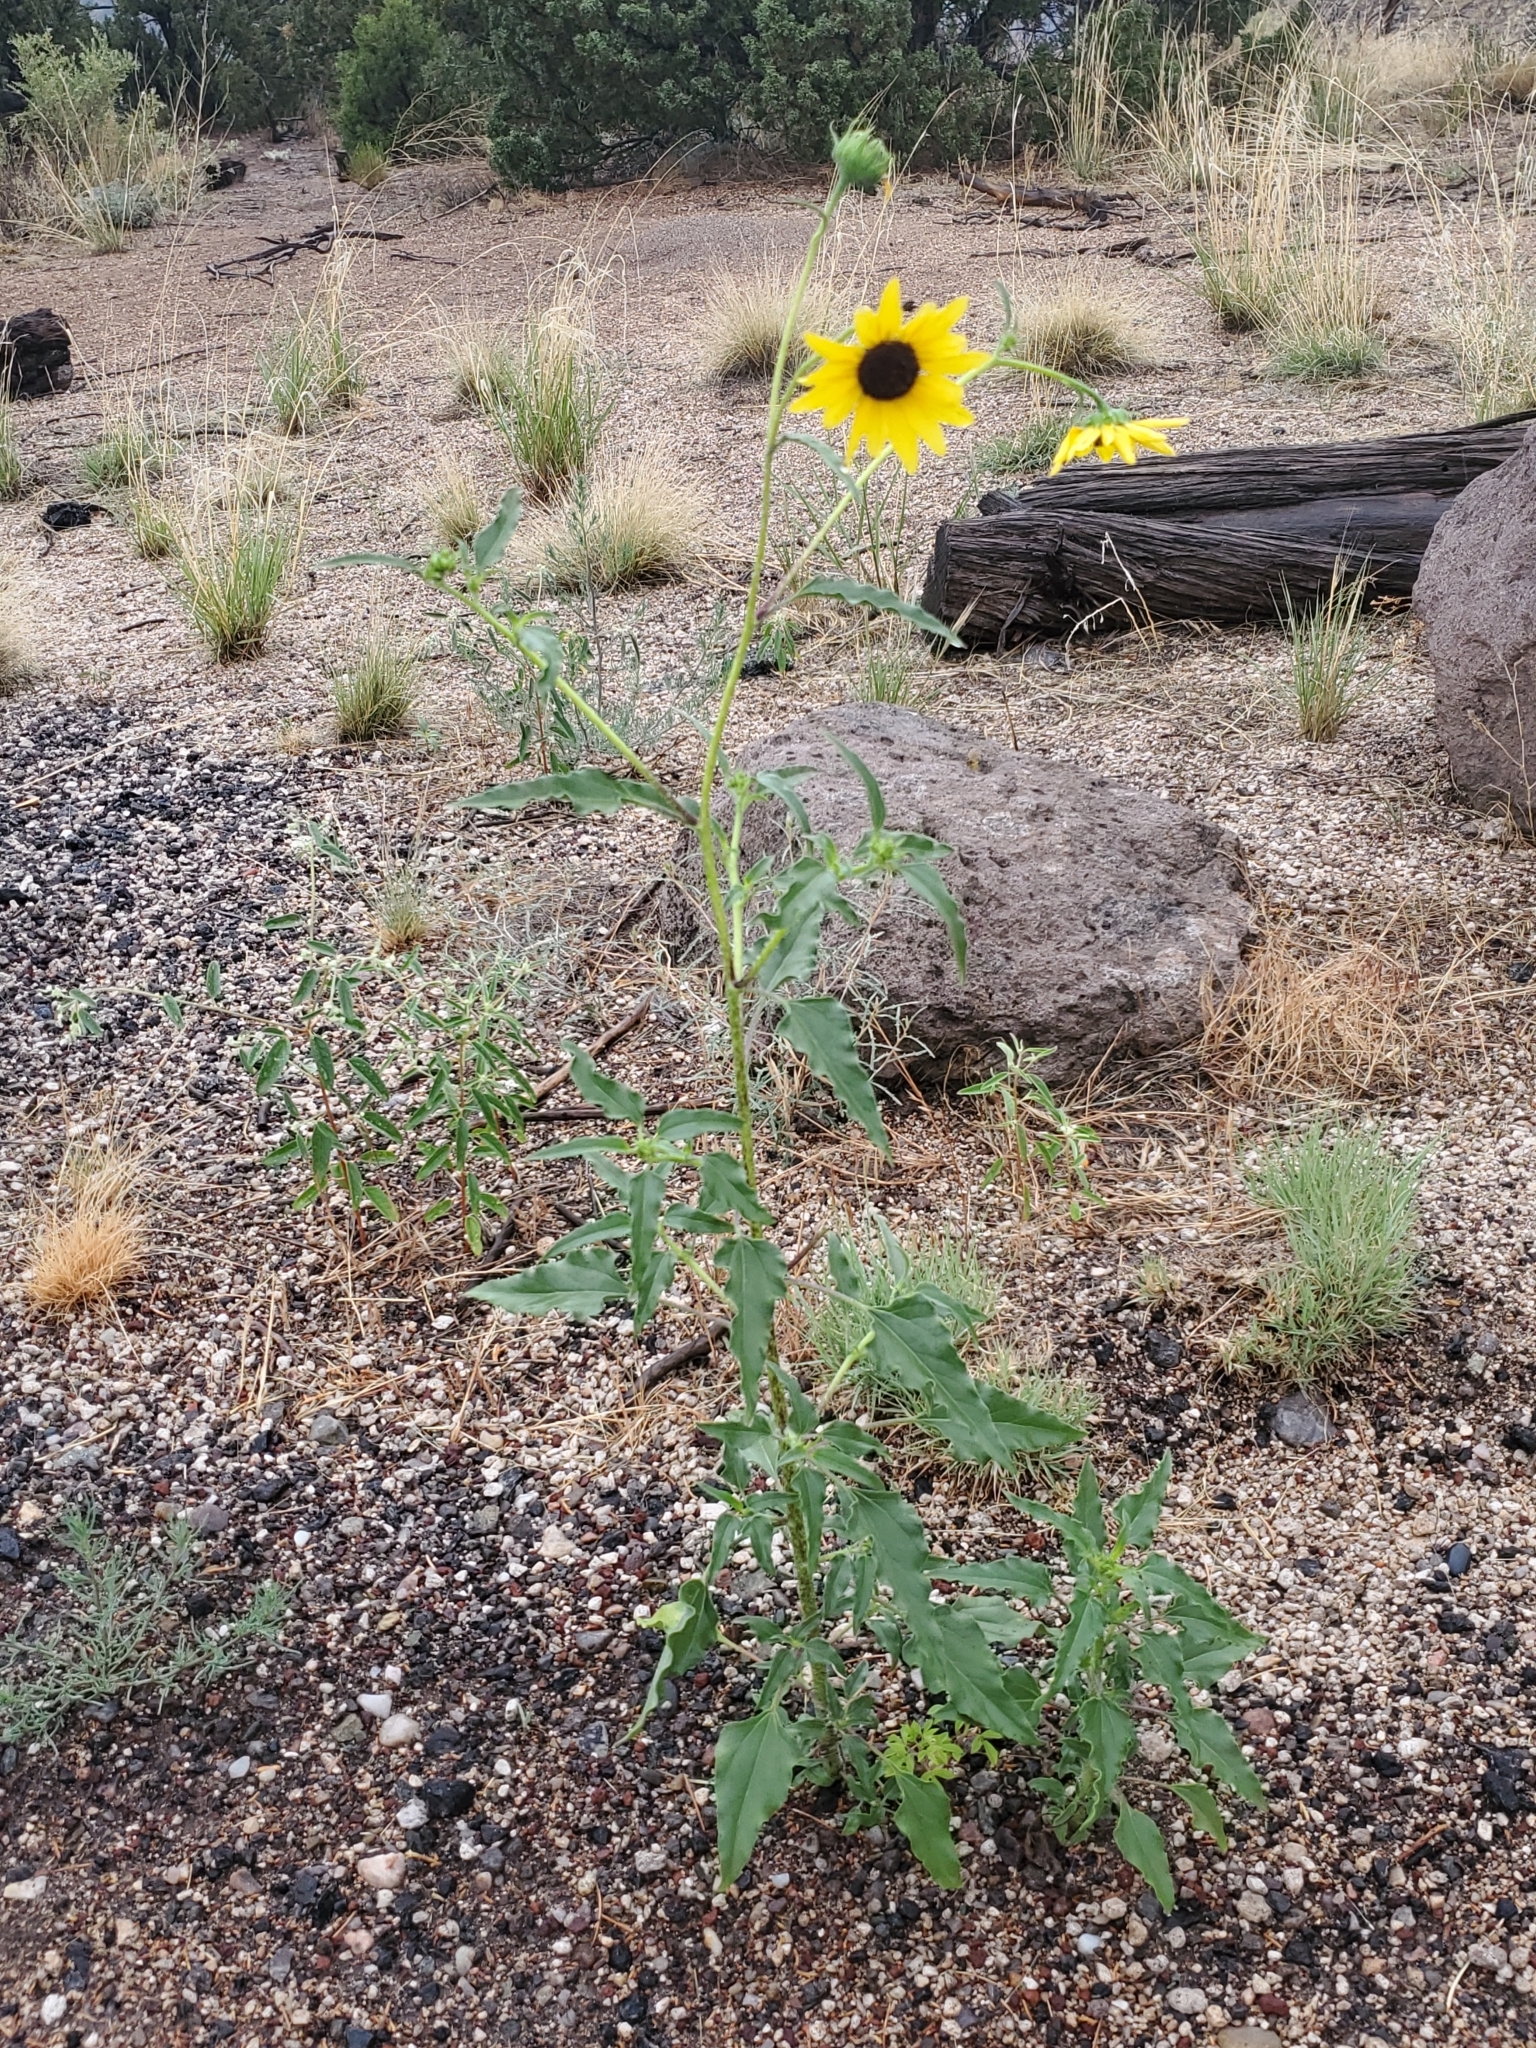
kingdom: Plantae
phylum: Tracheophyta
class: Magnoliopsida
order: Asterales
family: Asteraceae
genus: Helianthus
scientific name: Helianthus petiolaris
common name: Lesser sunflower
